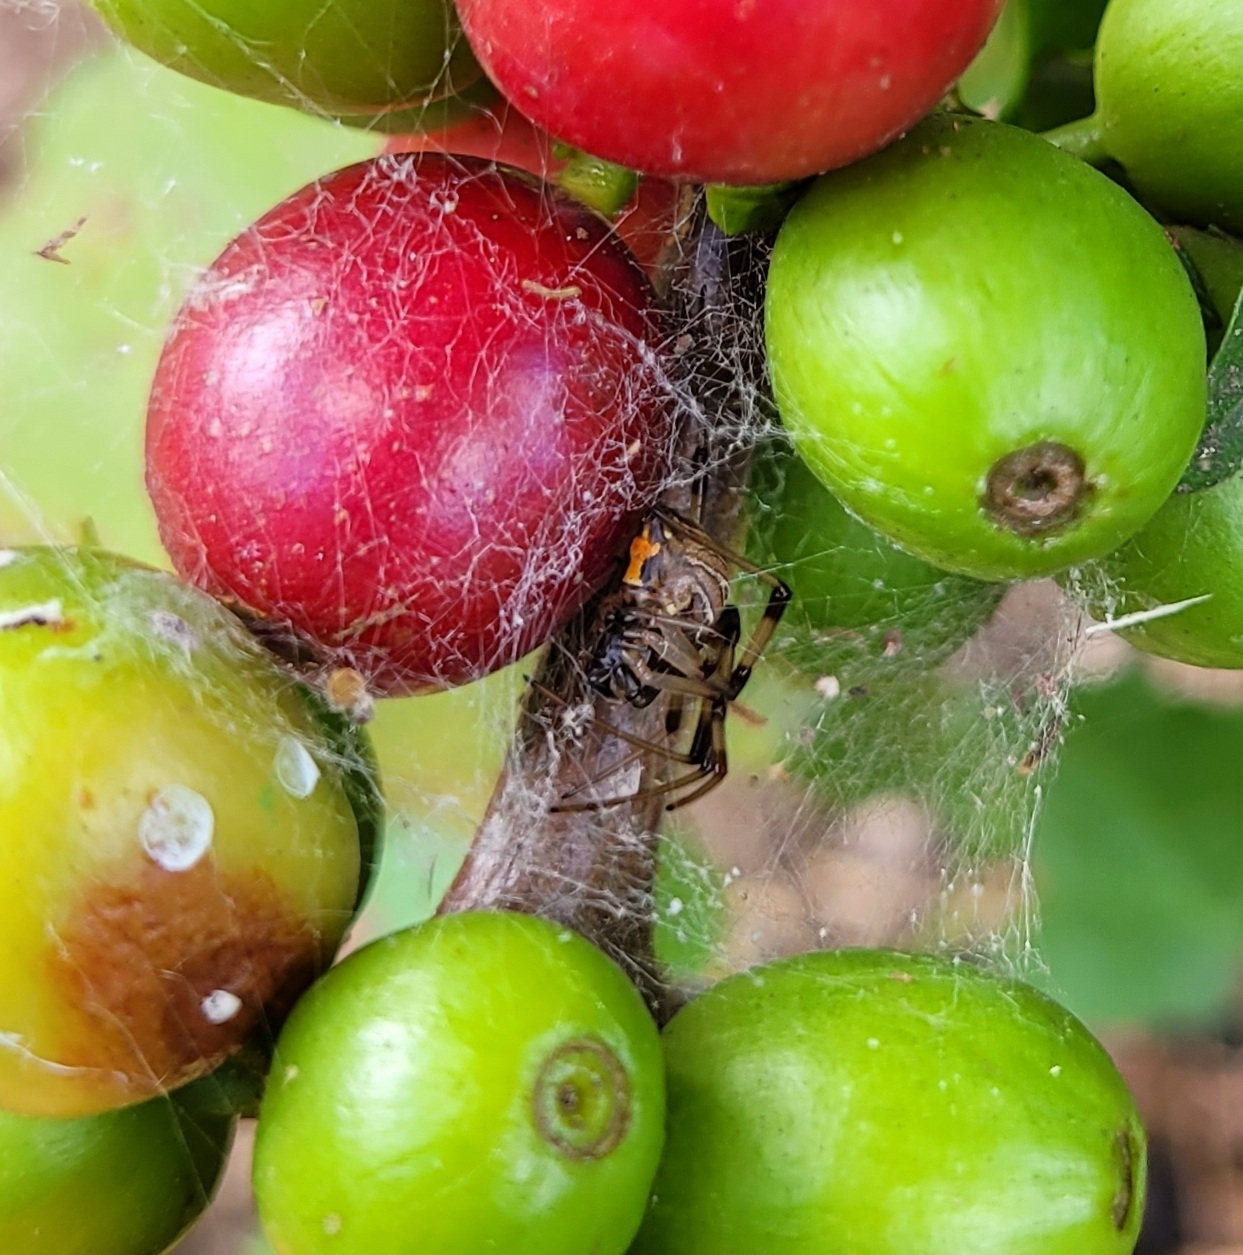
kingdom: Animalia
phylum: Arthropoda
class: Arachnida
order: Araneae
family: Theridiidae
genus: Latrodectus
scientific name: Latrodectus geometricus
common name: Brown widow spider
